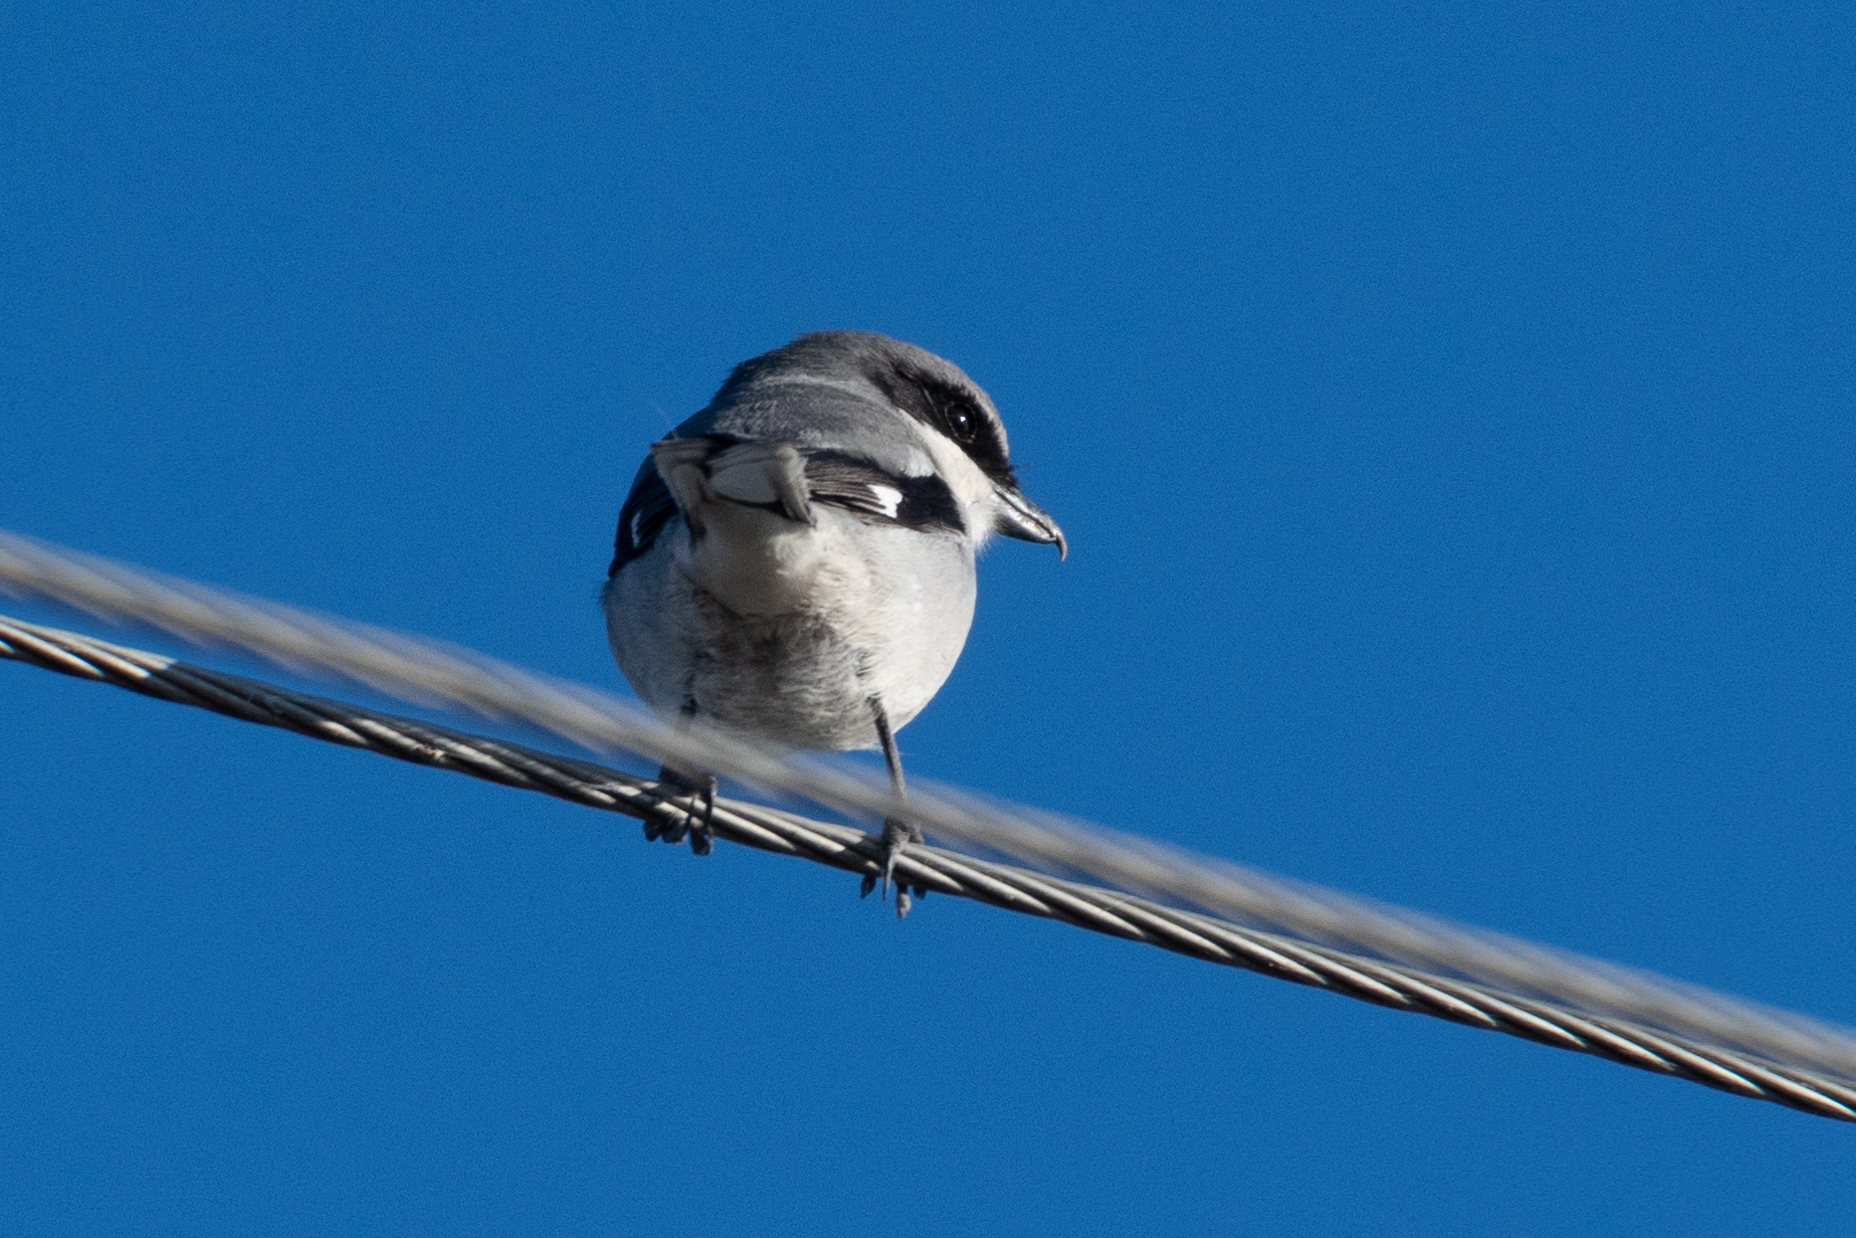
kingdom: Animalia
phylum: Chordata
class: Aves
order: Passeriformes
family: Laniidae
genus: Lanius
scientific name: Lanius ludovicianus
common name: Loggerhead shrike
